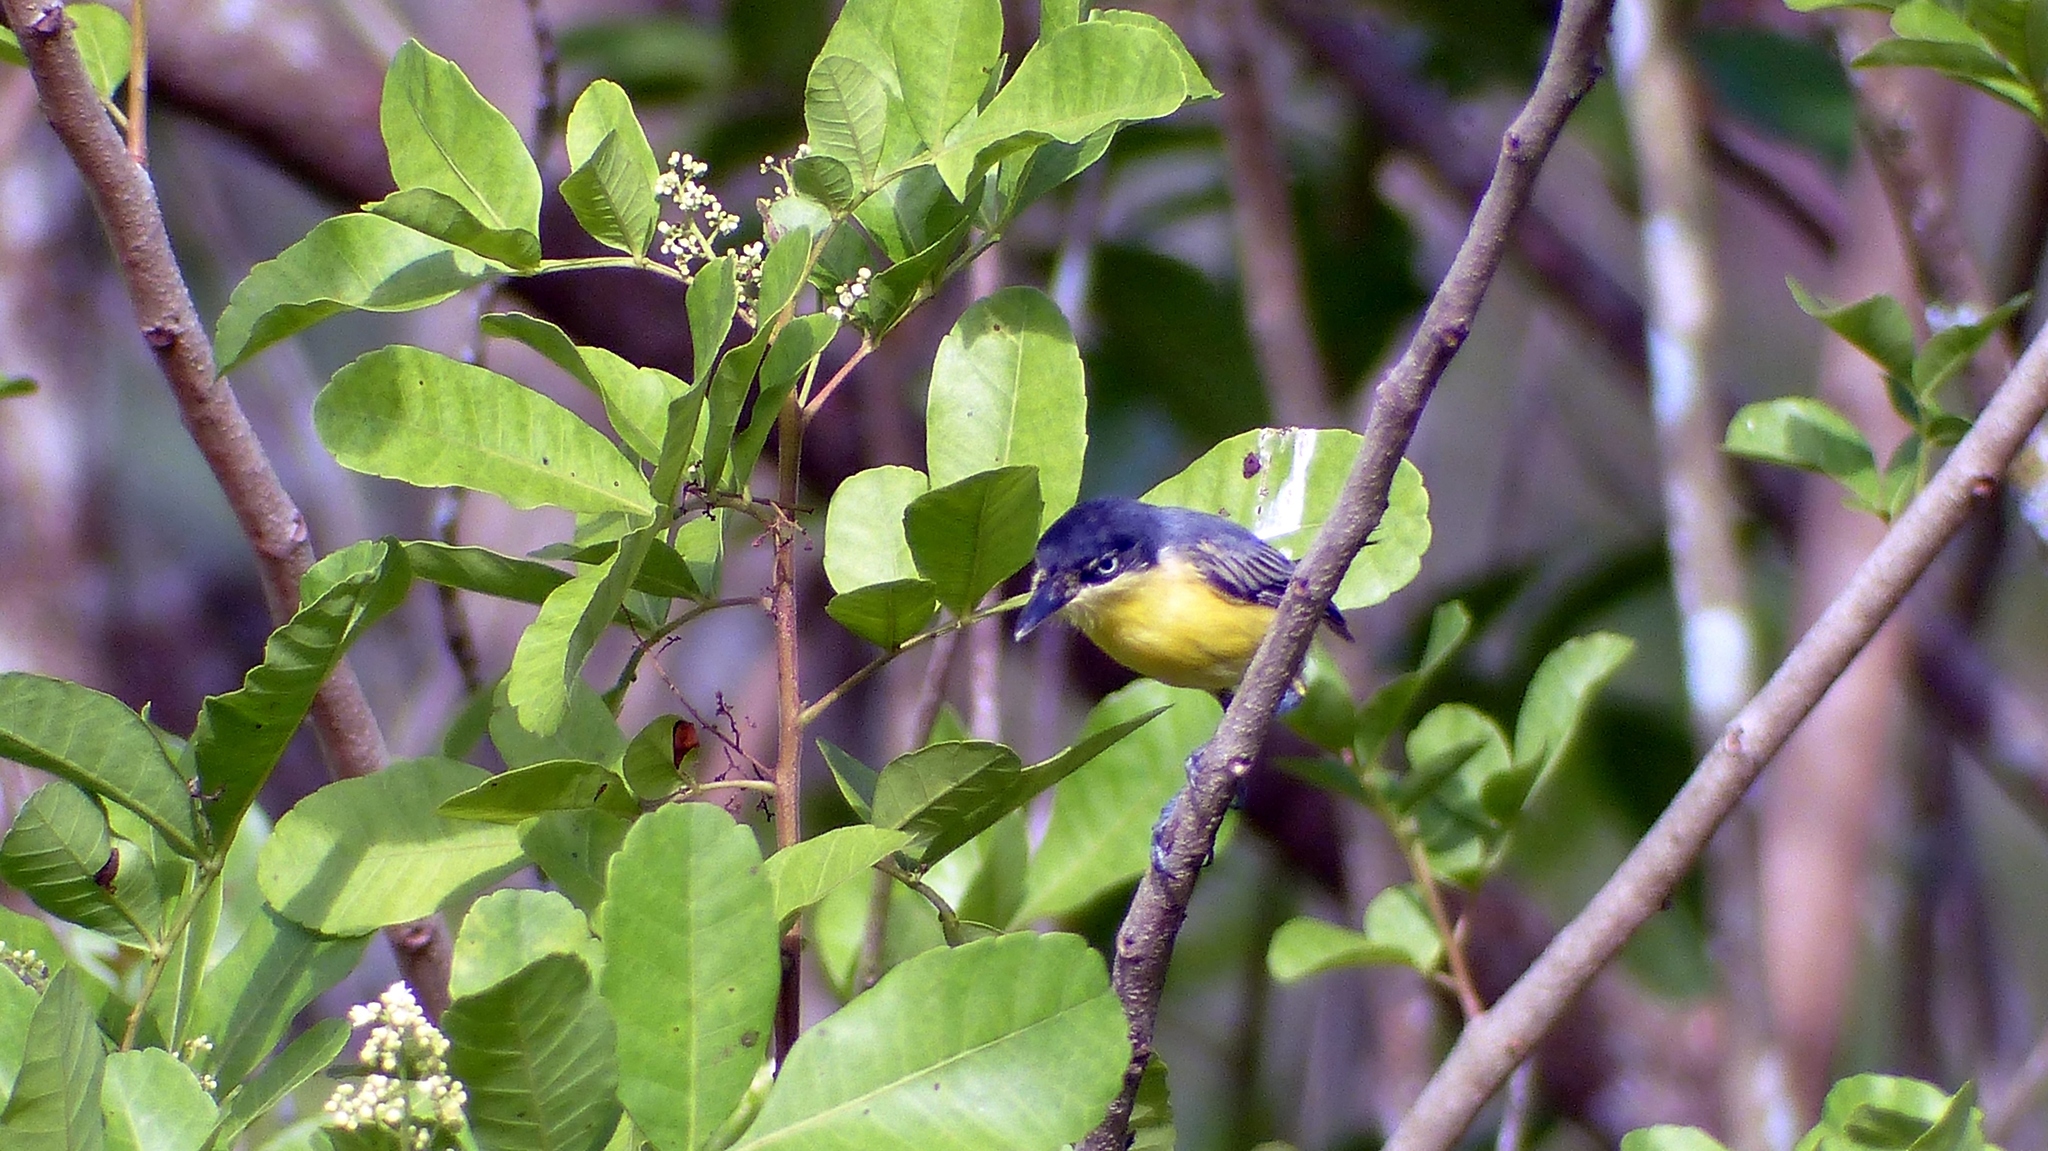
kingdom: Animalia
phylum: Chordata
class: Aves
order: Passeriformes
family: Tyrannidae
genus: Todirostrum
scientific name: Todirostrum cinereum
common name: Common tody-flycatcher
